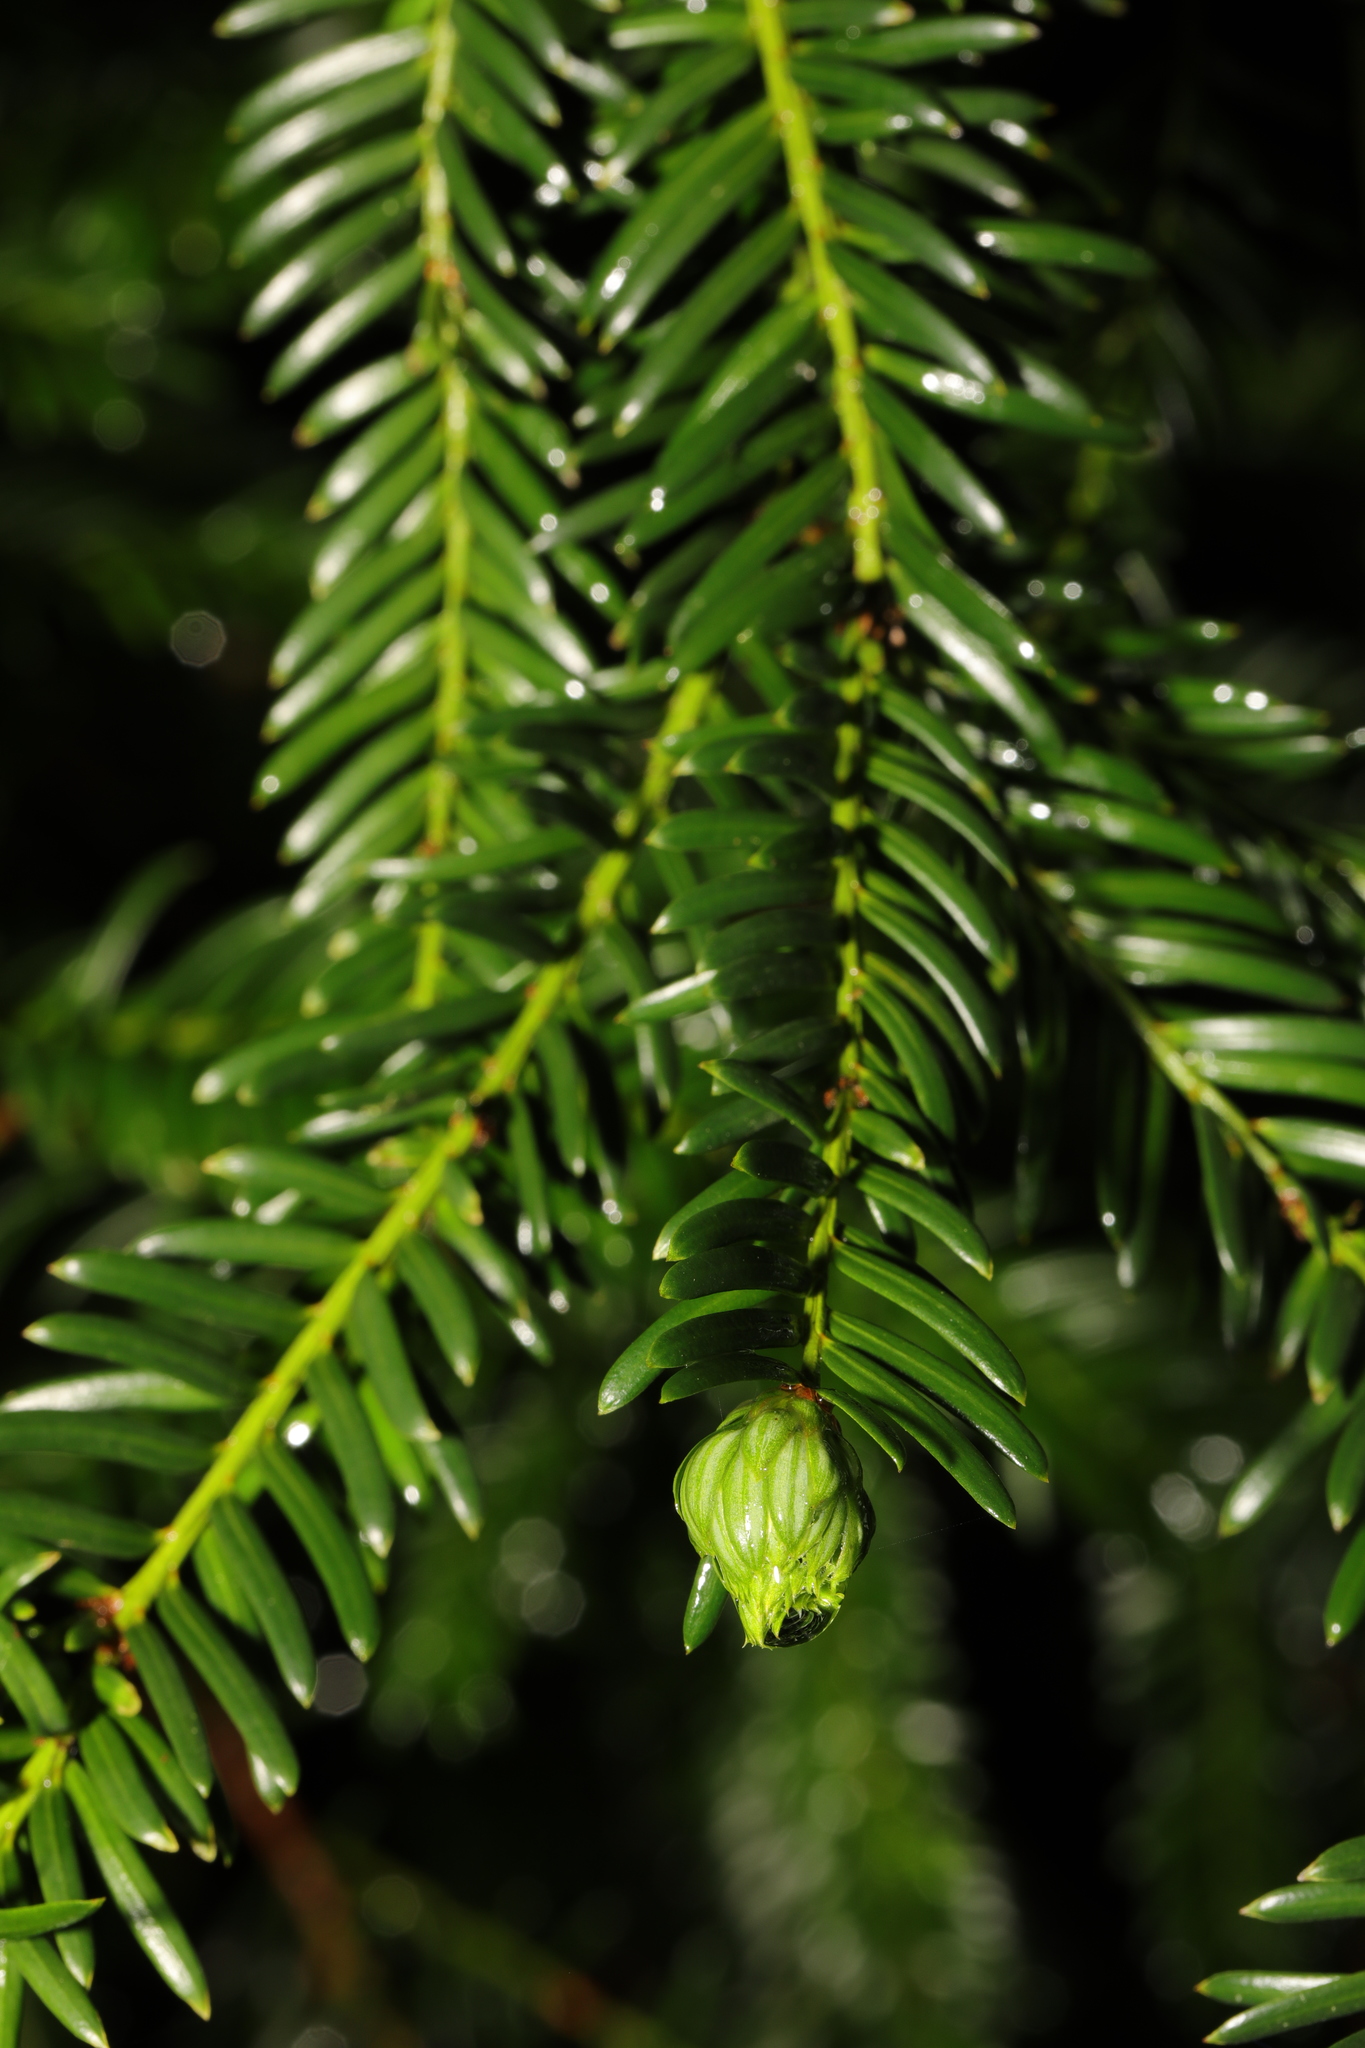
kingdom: Animalia
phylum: Arthropoda
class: Insecta
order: Diptera
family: Cecidomyiidae
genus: Taxomyia
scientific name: Taxomyia taxi
